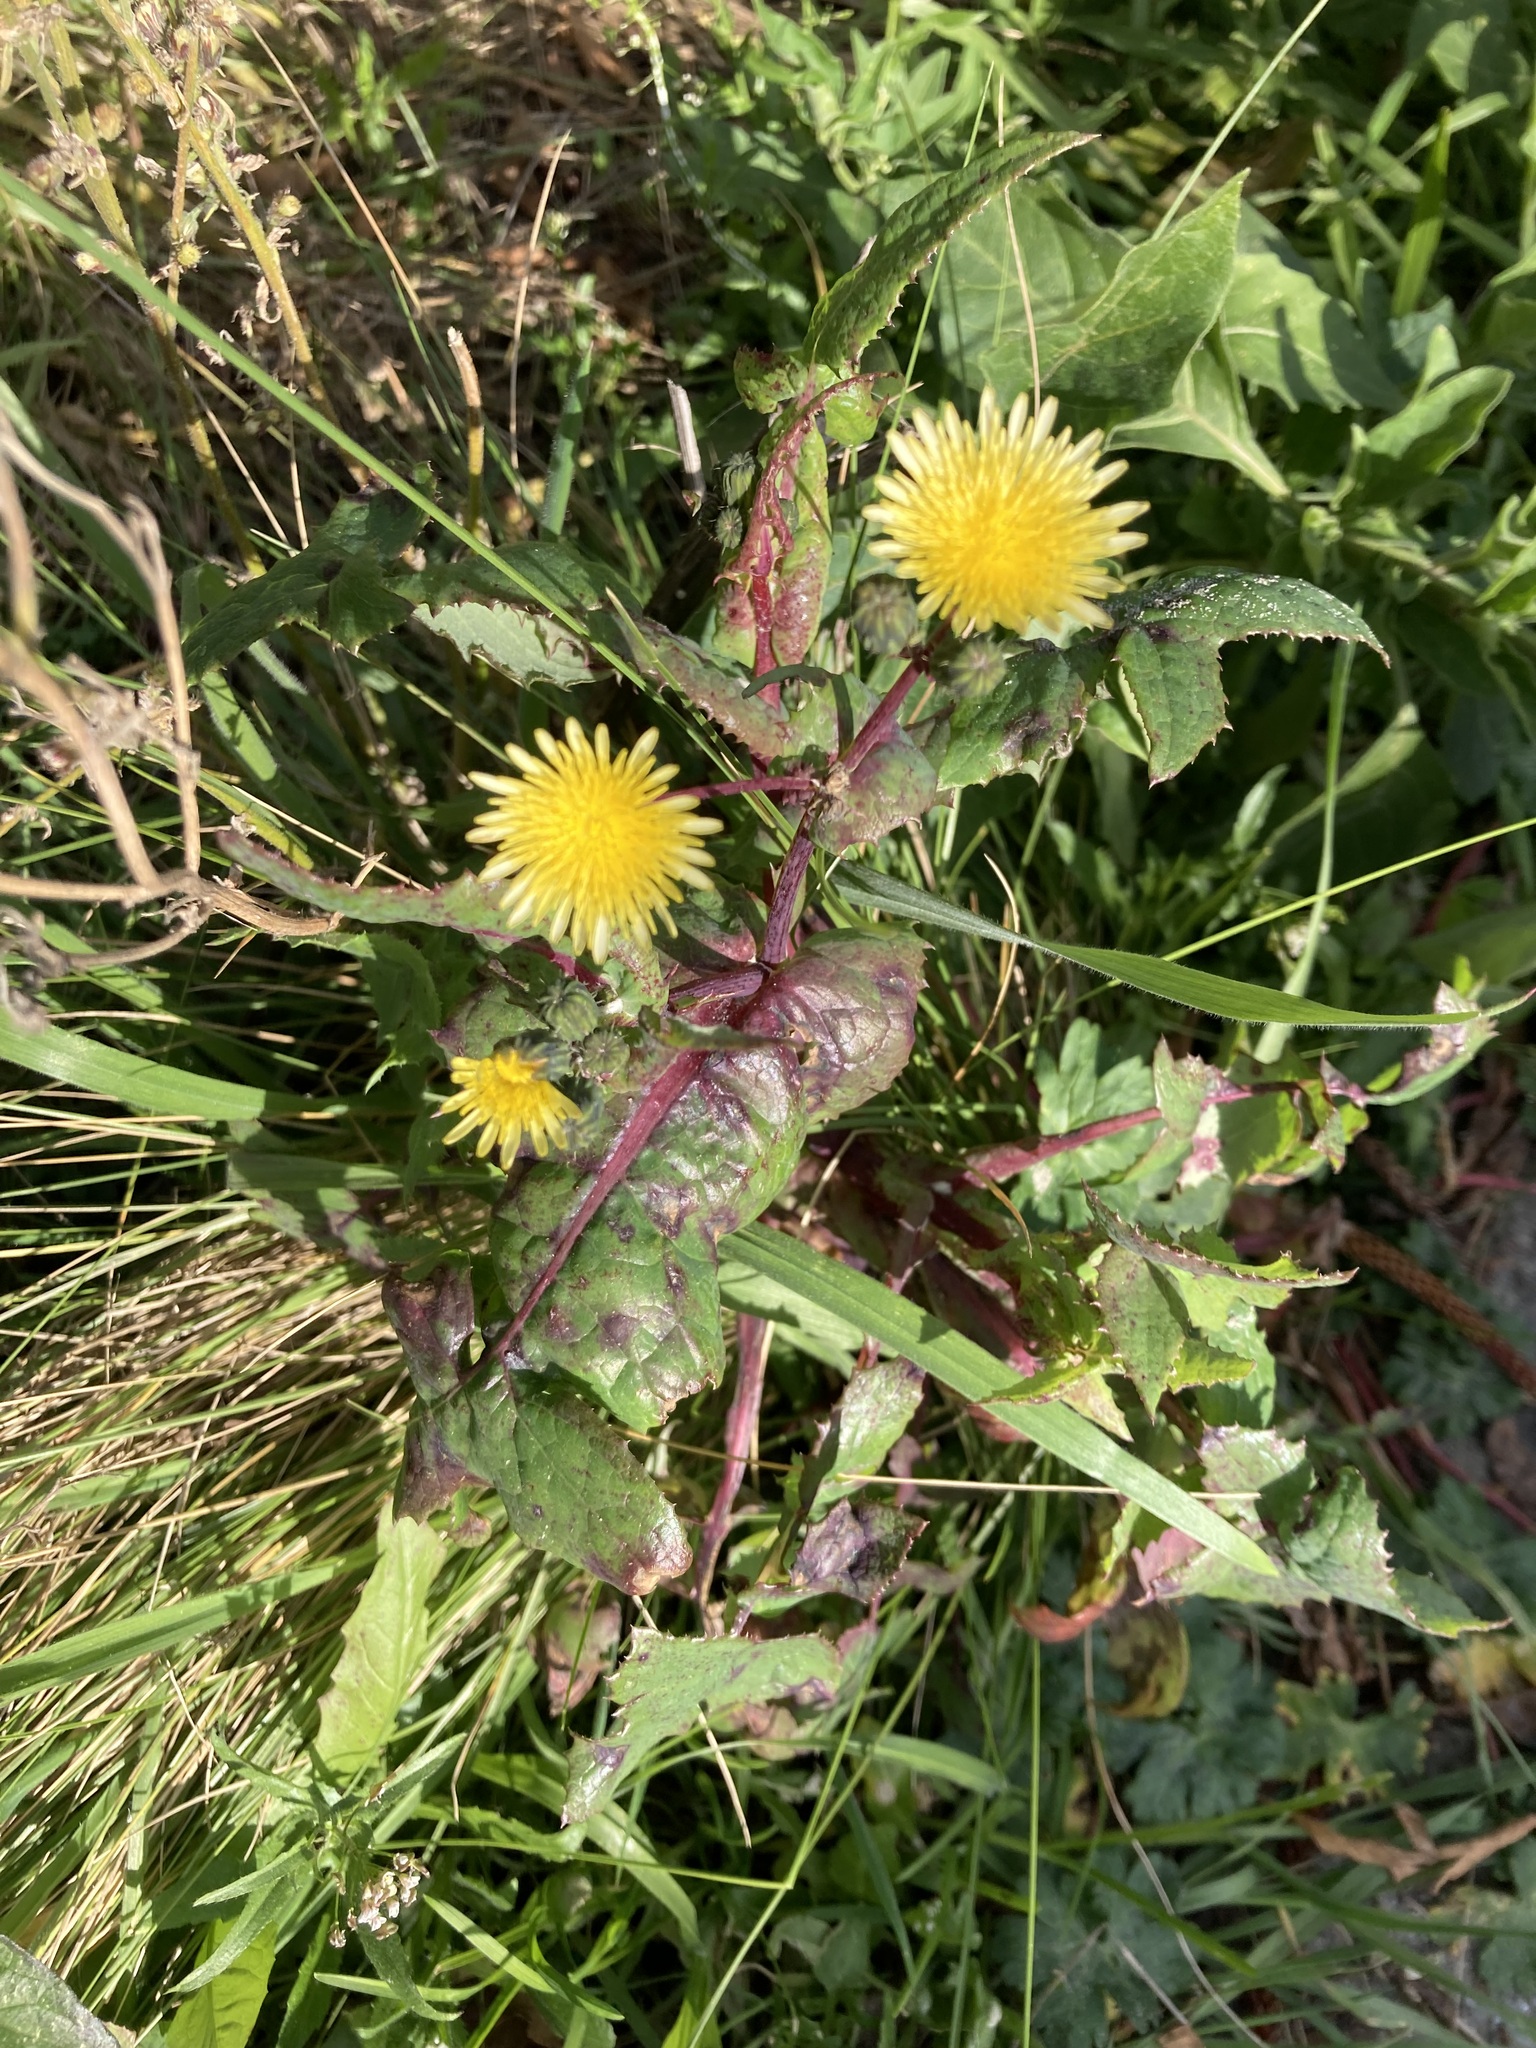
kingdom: Plantae
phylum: Tracheophyta
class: Magnoliopsida
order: Asterales
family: Asteraceae
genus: Sonchus
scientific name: Sonchus oleraceus
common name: Common sowthistle
